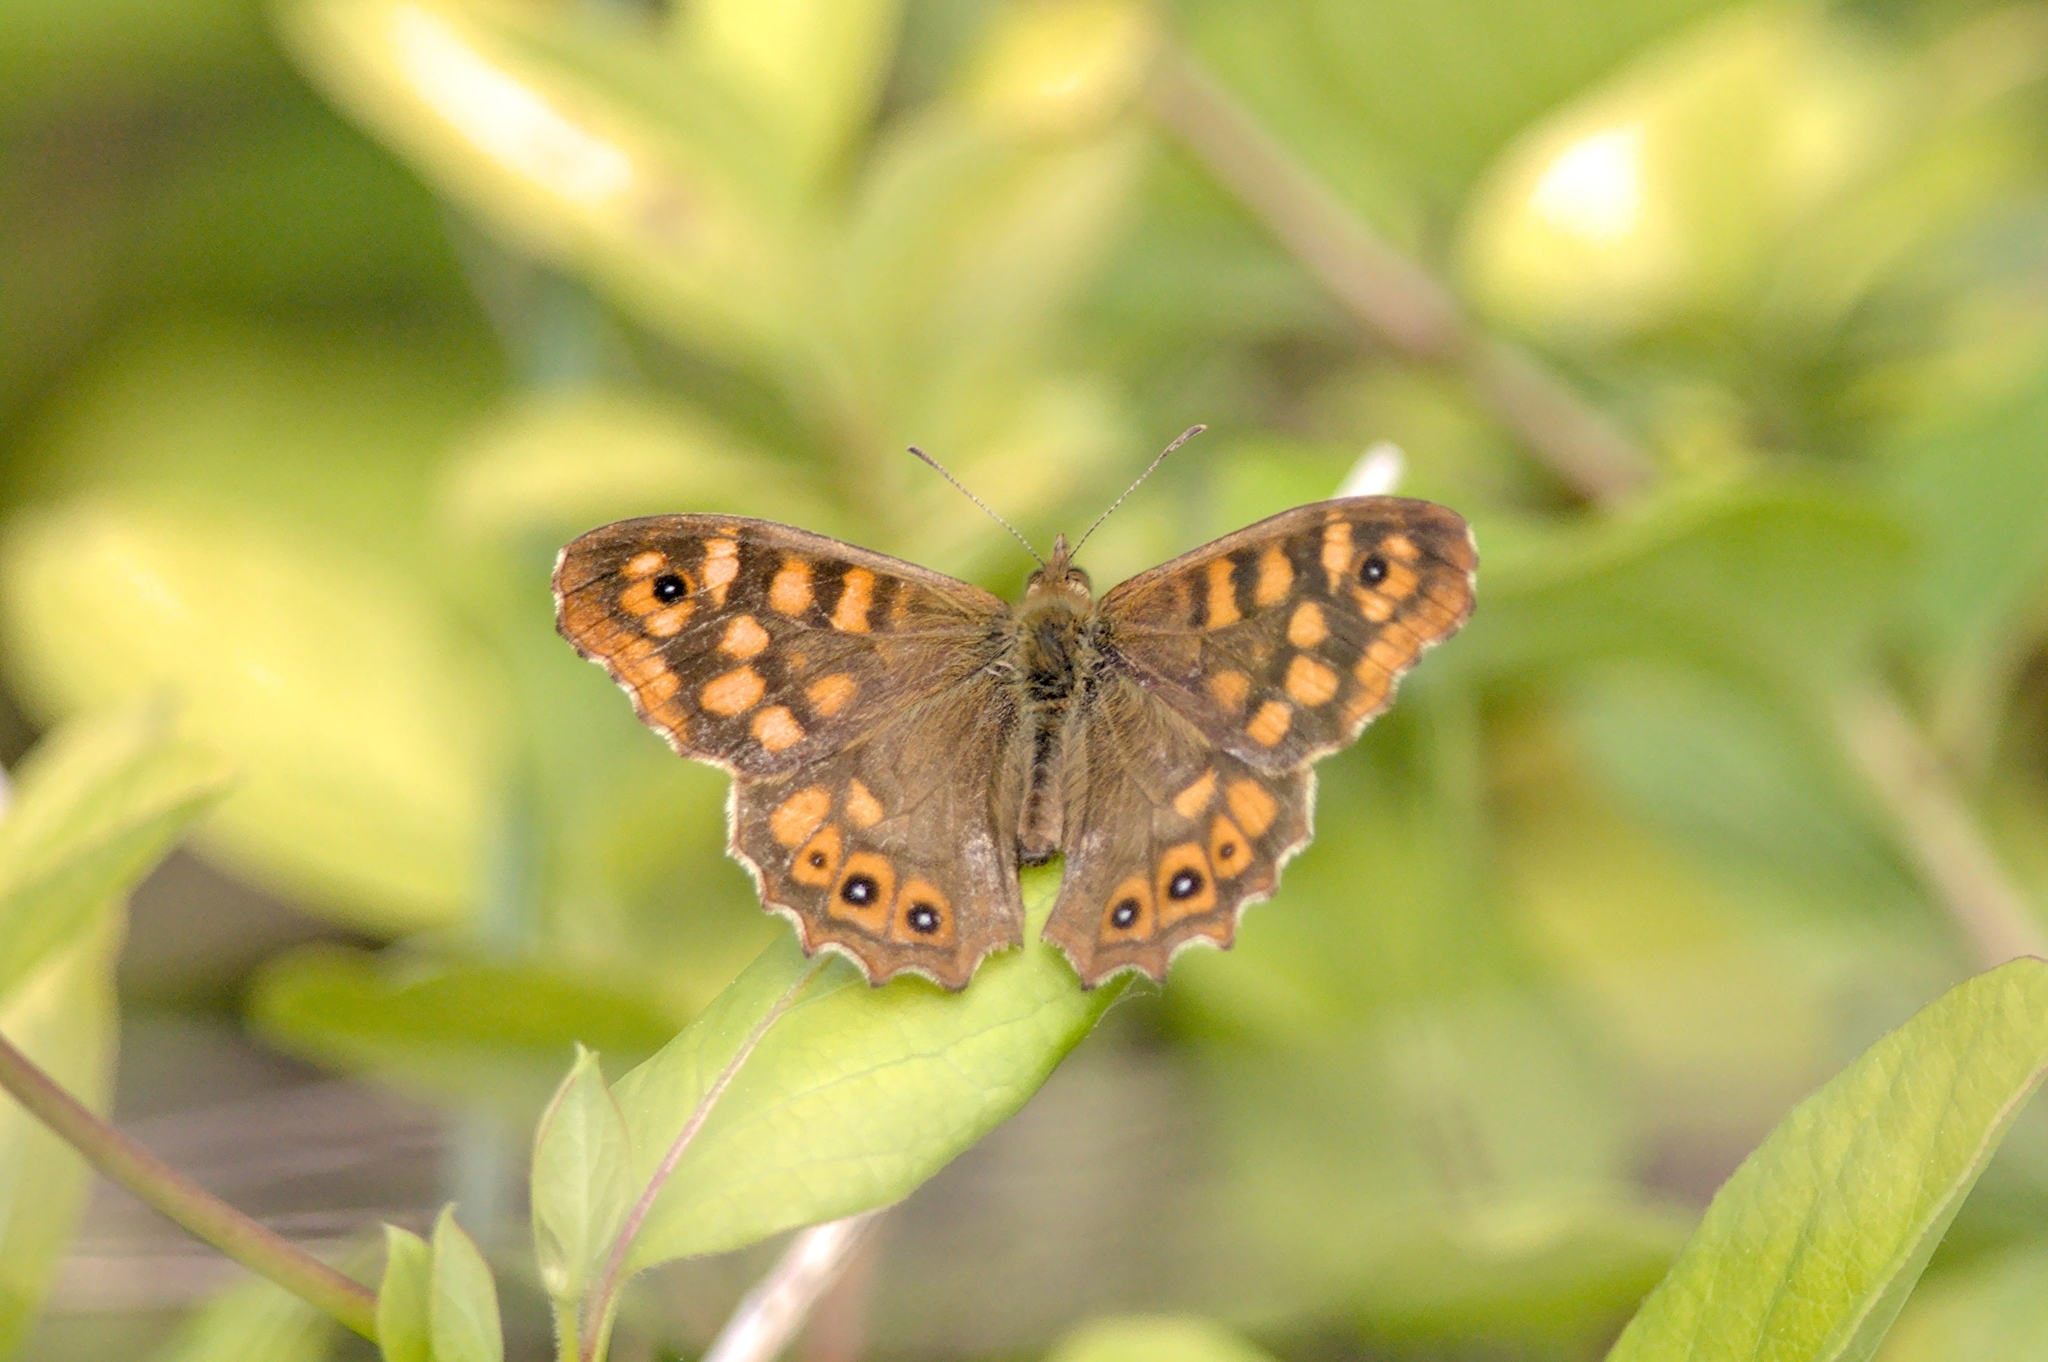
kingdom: Animalia
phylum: Arthropoda
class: Insecta
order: Lepidoptera
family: Nymphalidae
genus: Pararge
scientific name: Pararge aegeria
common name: Speckled wood
